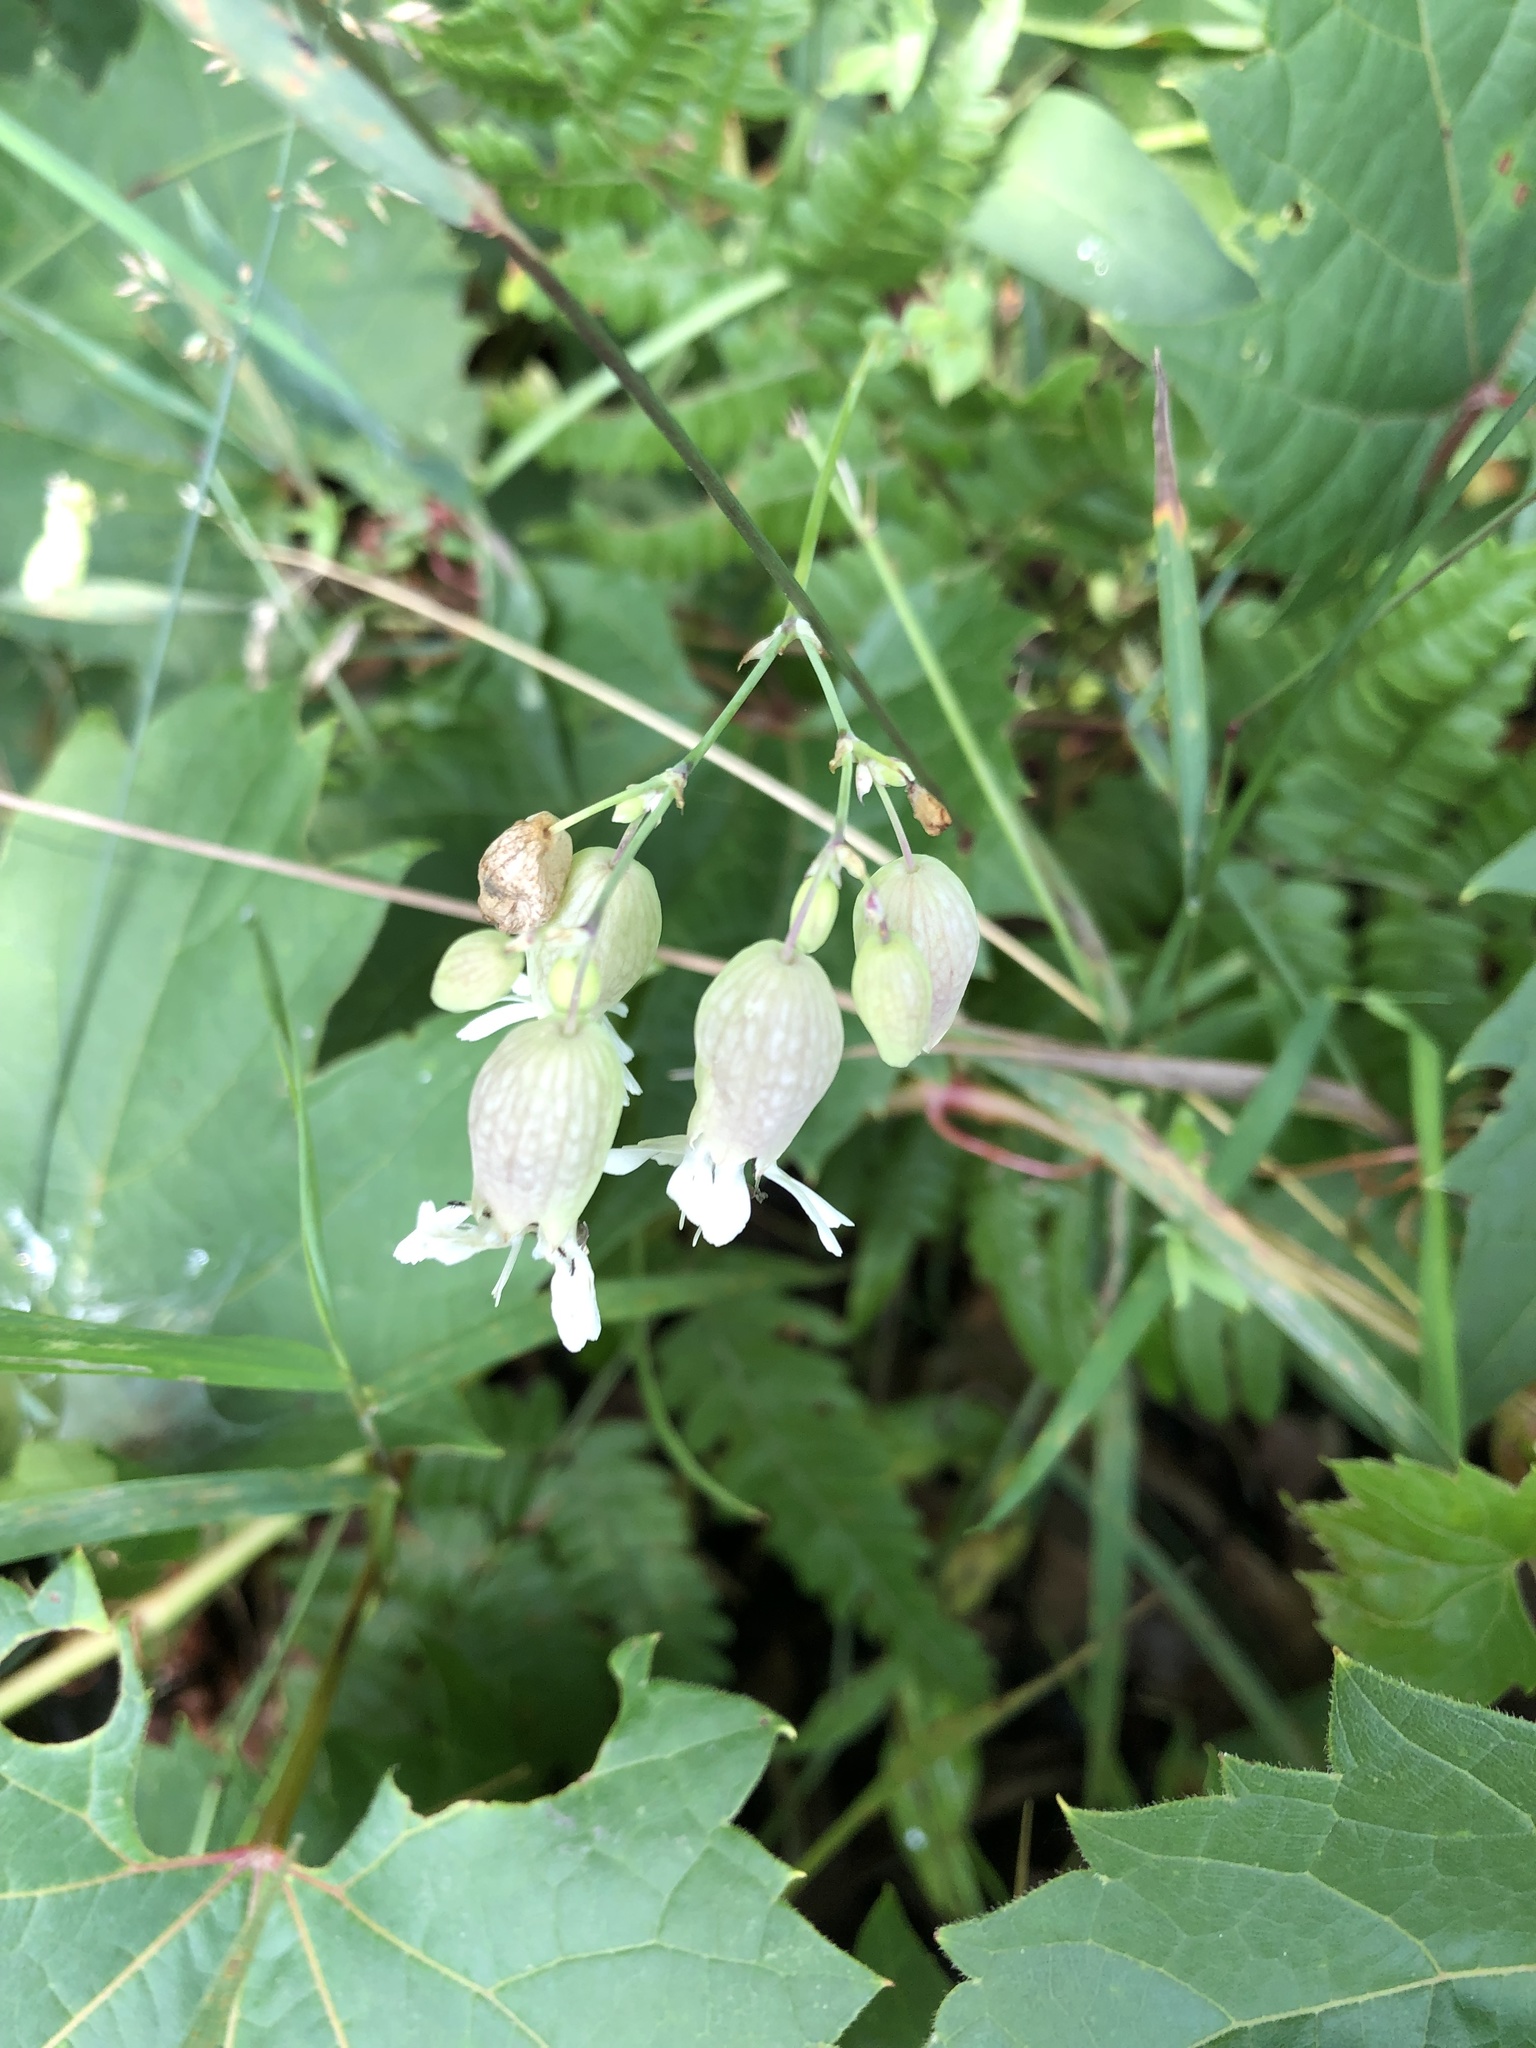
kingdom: Plantae
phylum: Tracheophyta
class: Magnoliopsida
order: Caryophyllales
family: Caryophyllaceae
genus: Silene
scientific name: Silene vulgaris
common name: Bladder campion
